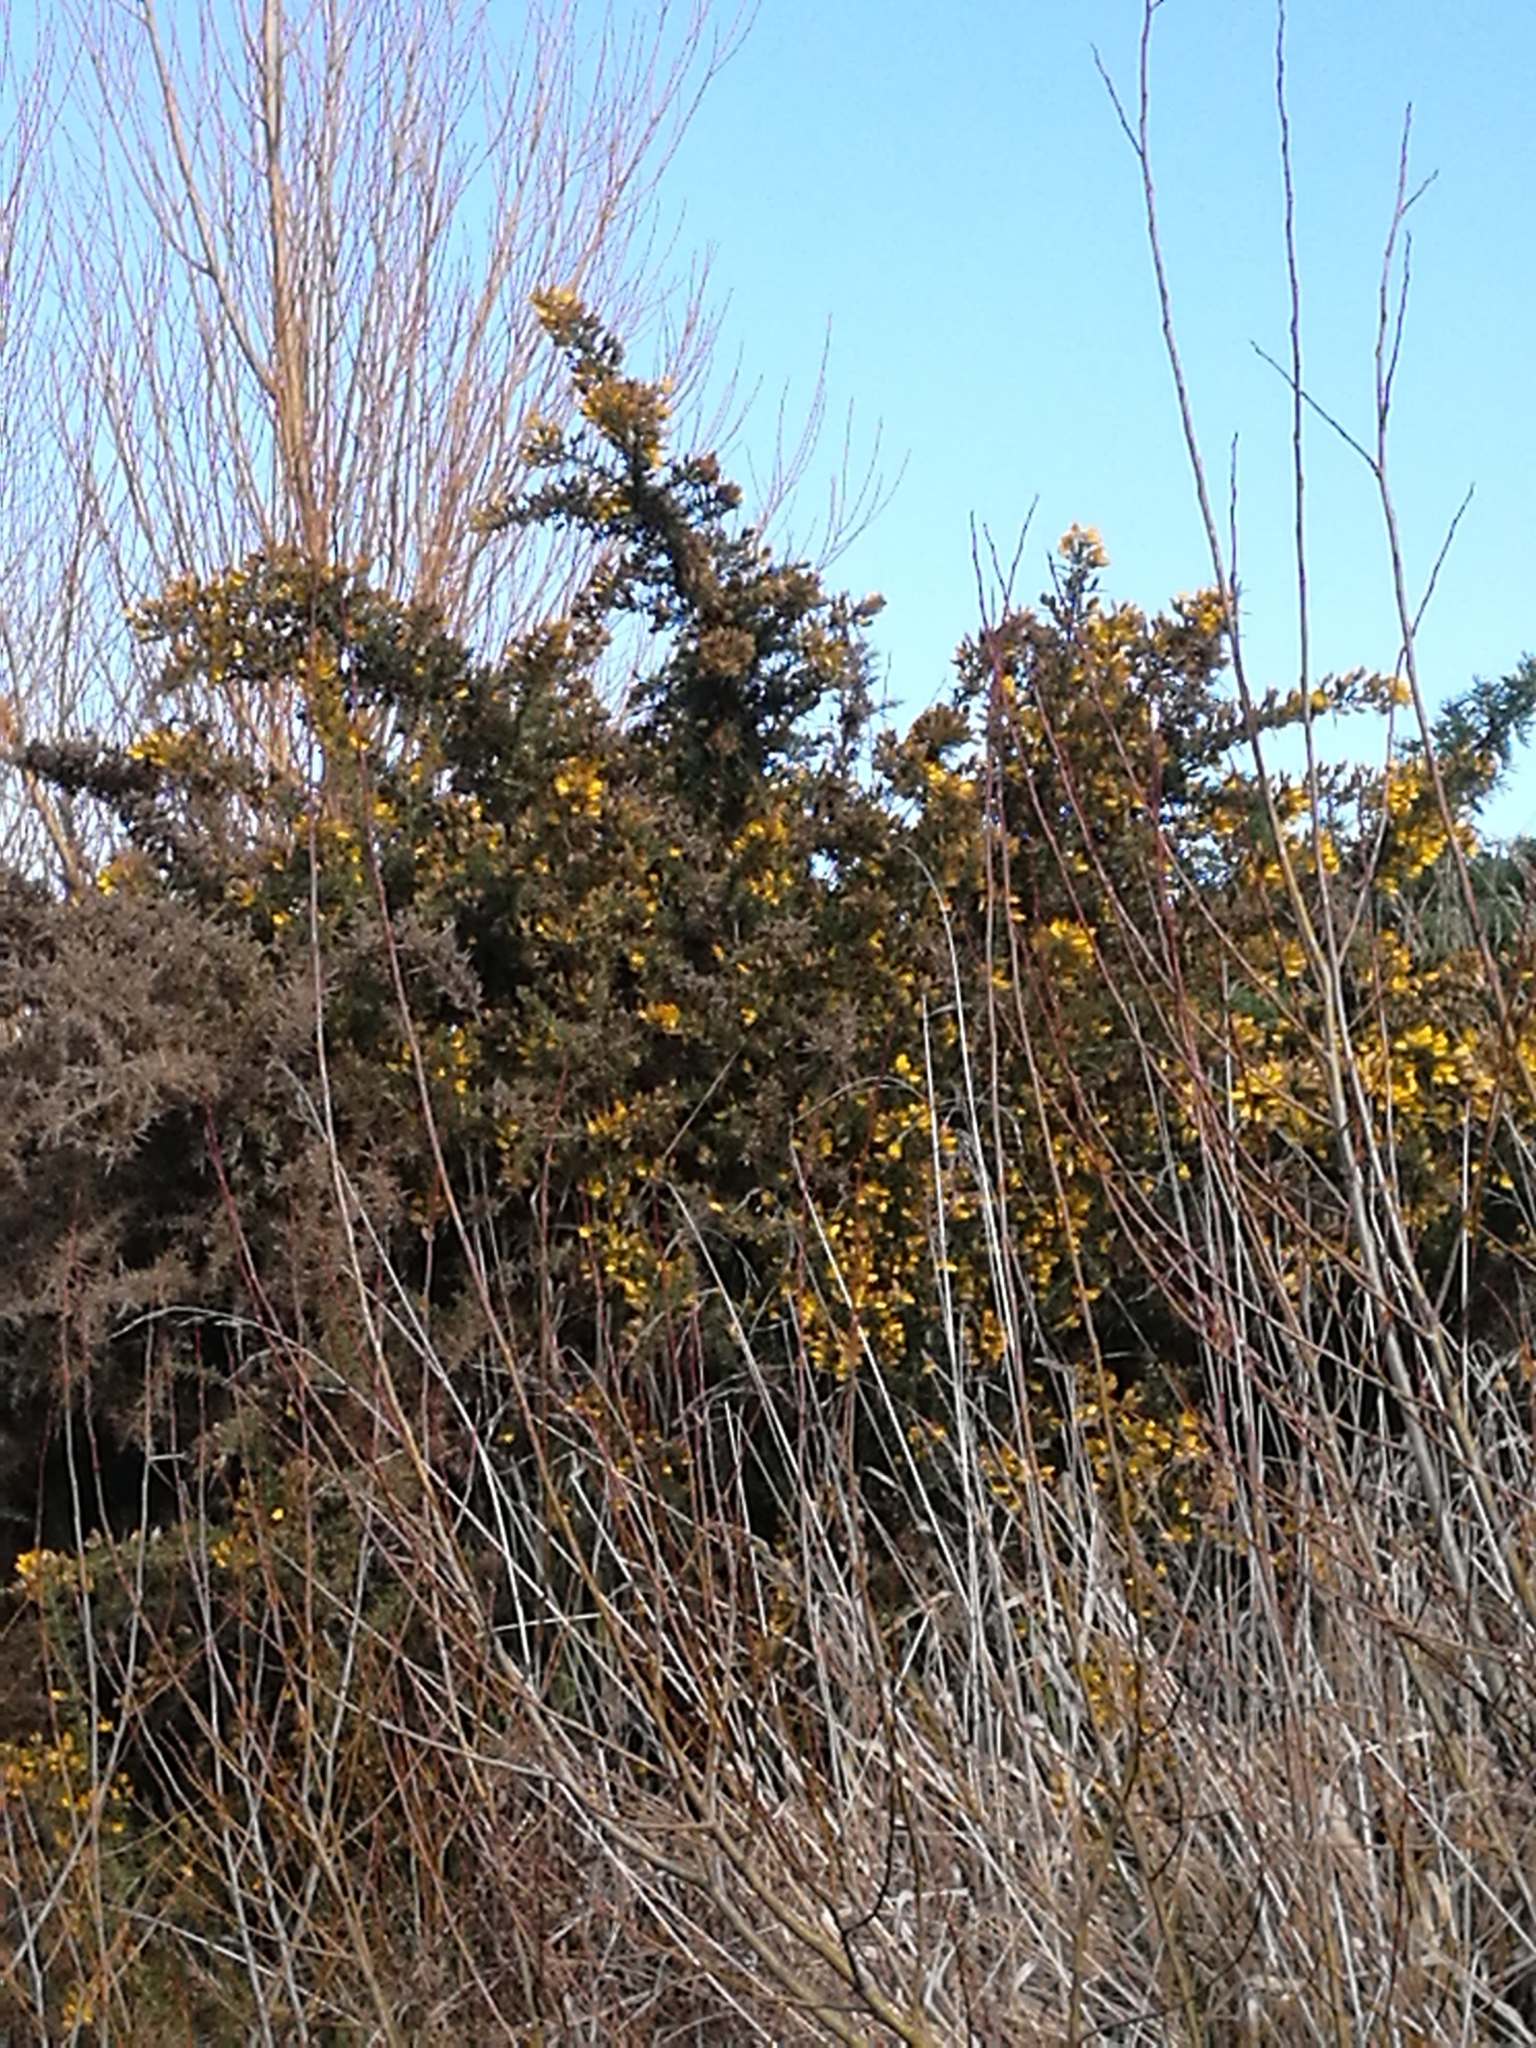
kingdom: Plantae
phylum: Tracheophyta
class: Magnoliopsida
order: Fabales
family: Fabaceae
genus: Ulex
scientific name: Ulex europaeus
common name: Common gorse
